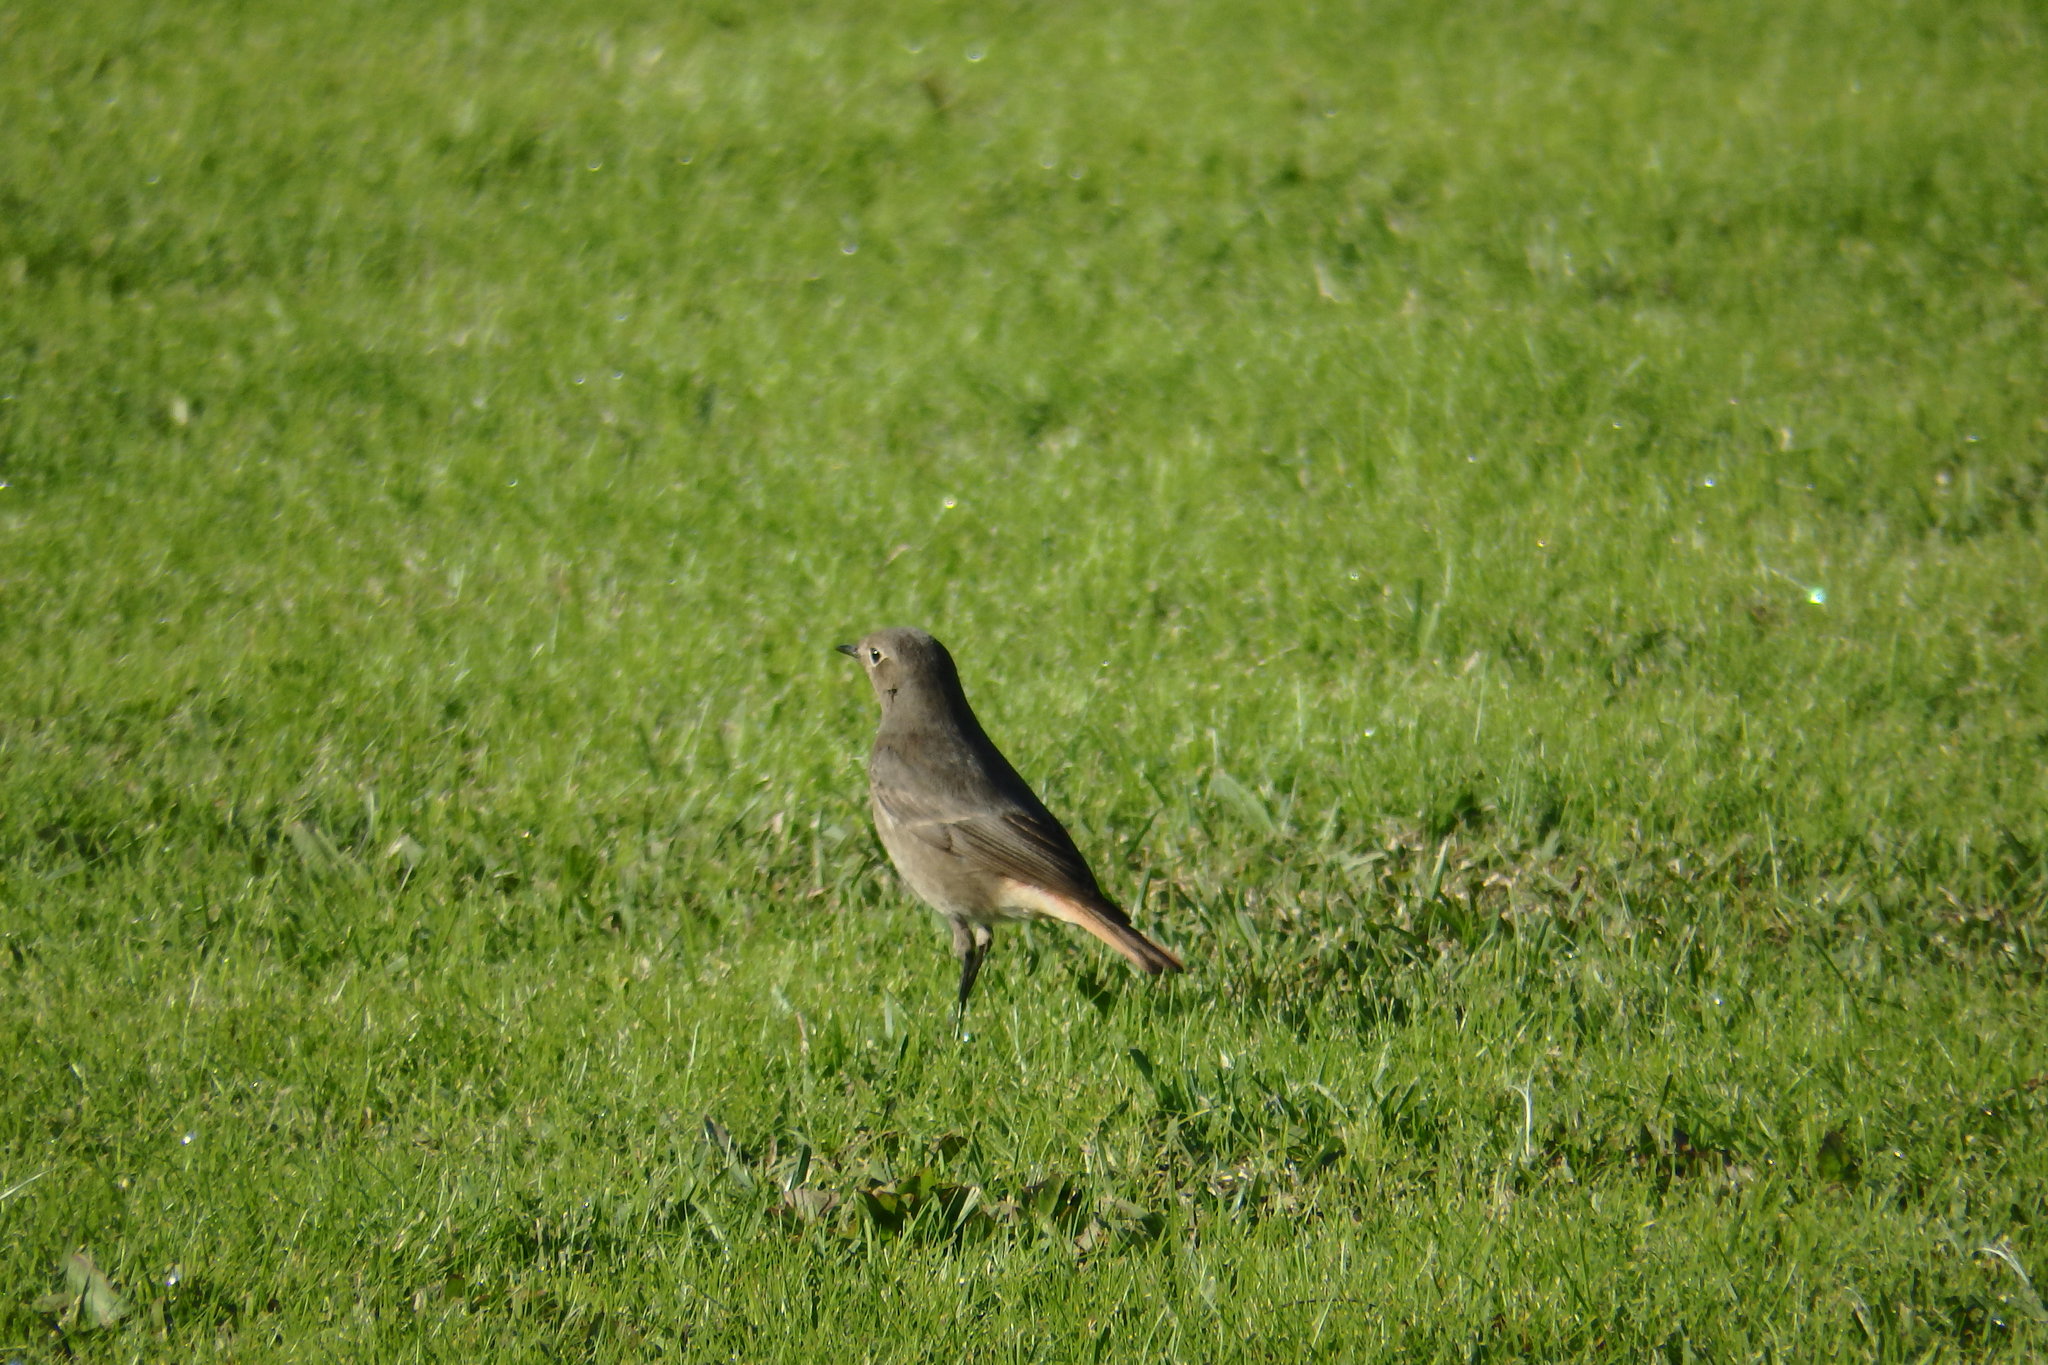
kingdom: Animalia
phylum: Chordata
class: Aves
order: Passeriformes
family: Muscicapidae
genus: Phoenicurus
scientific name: Phoenicurus ochruros
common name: Black redstart
